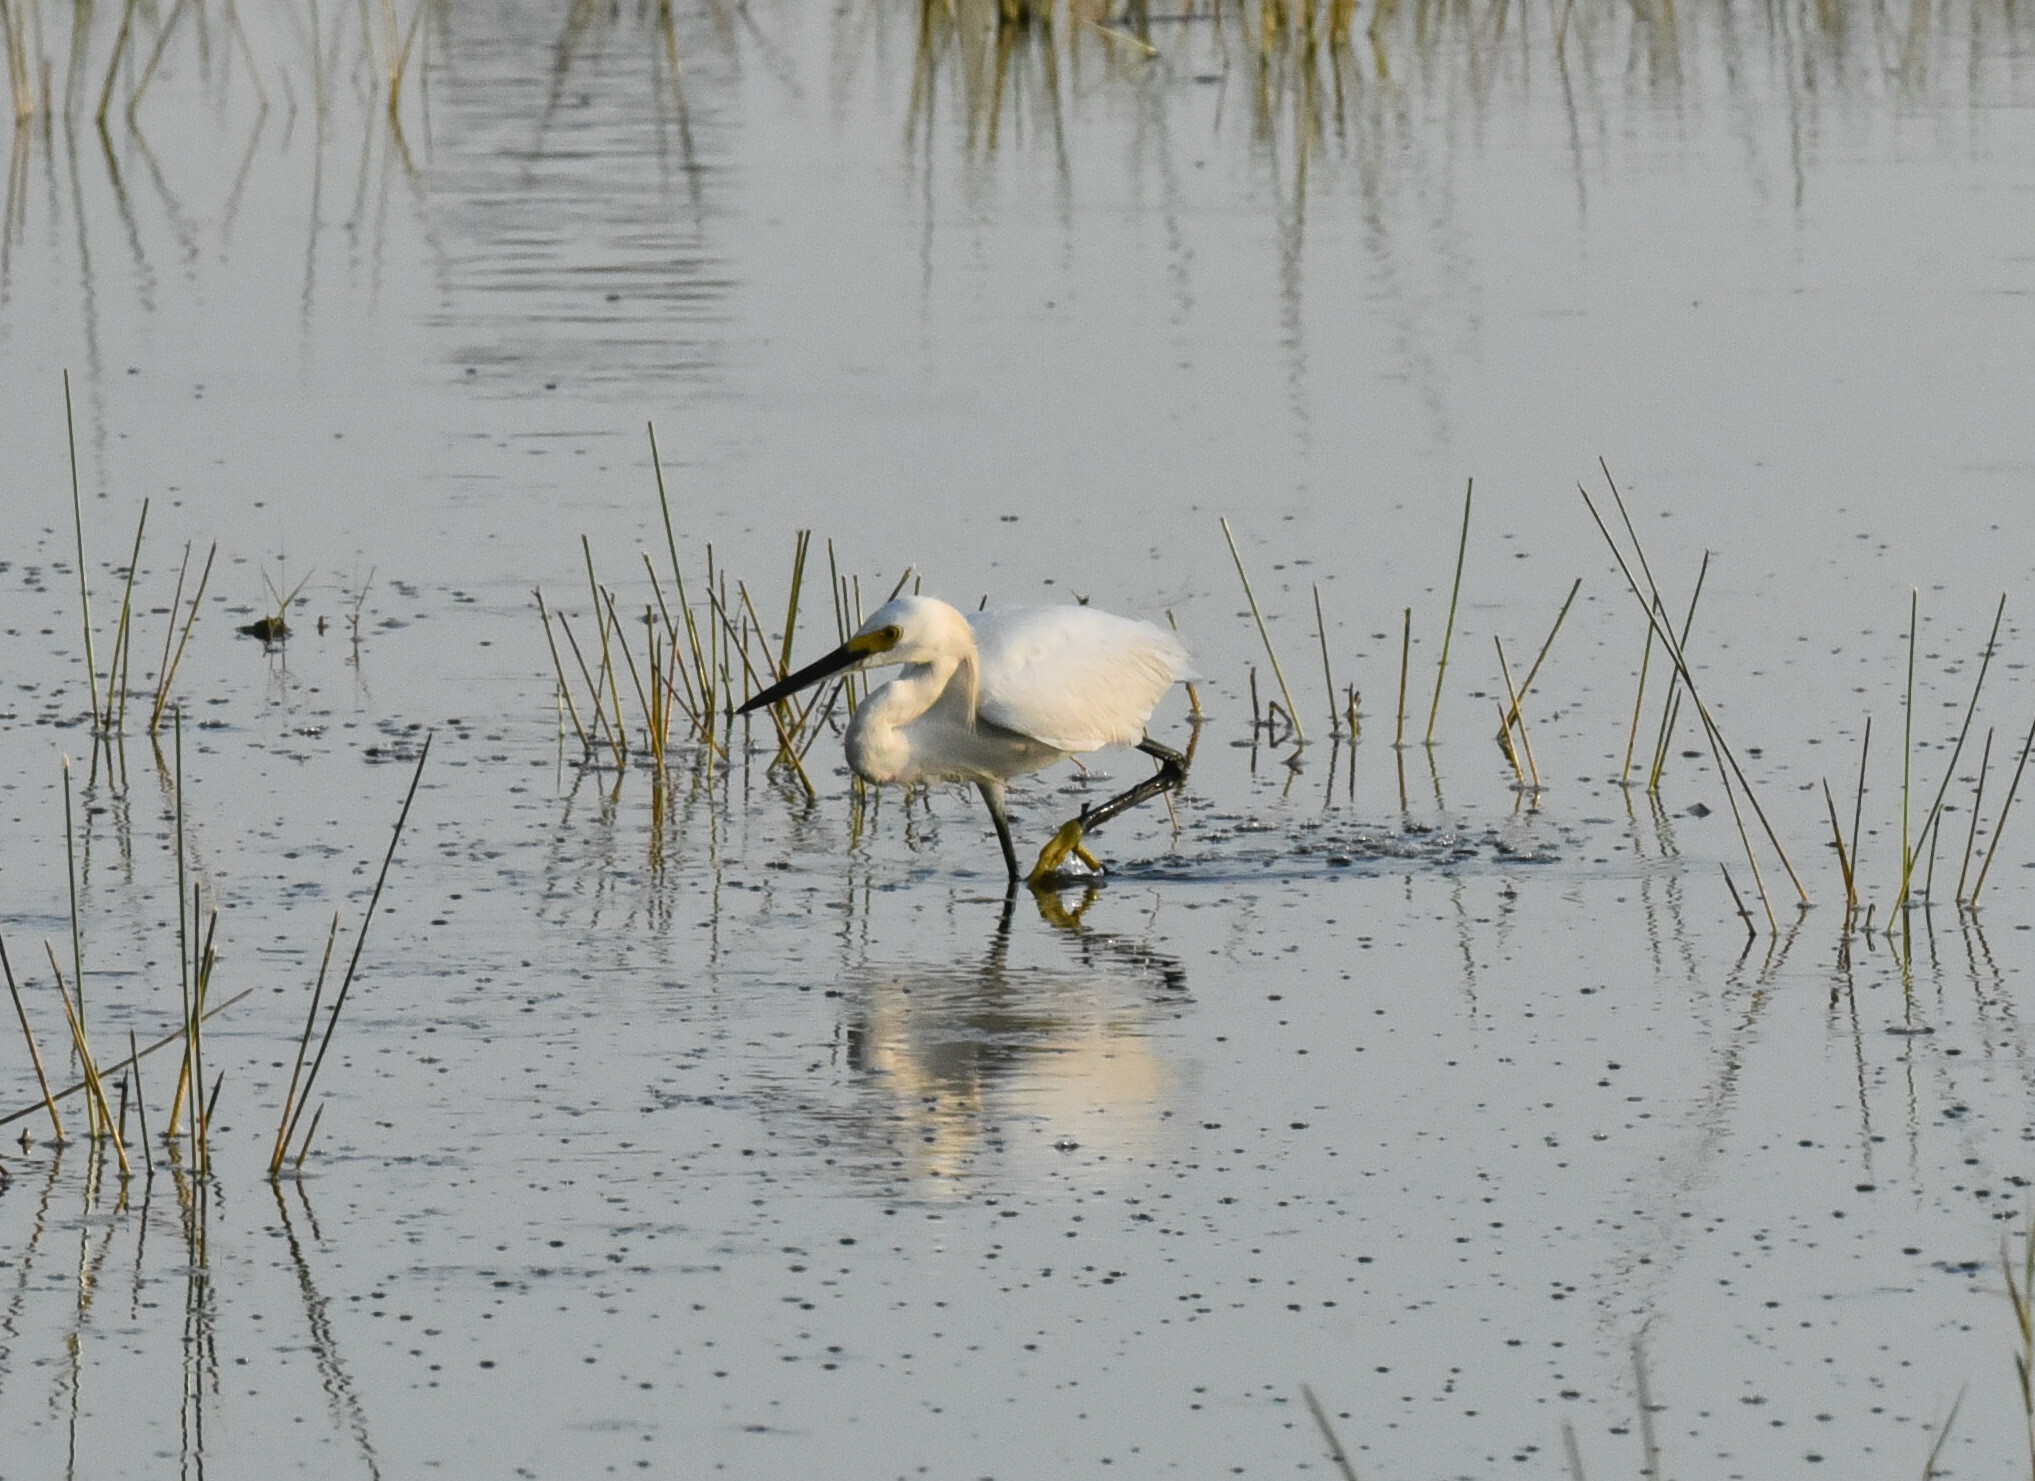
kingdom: Animalia
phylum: Chordata
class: Aves
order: Pelecaniformes
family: Ardeidae
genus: Egretta
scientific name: Egretta thula
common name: Snowy egret
